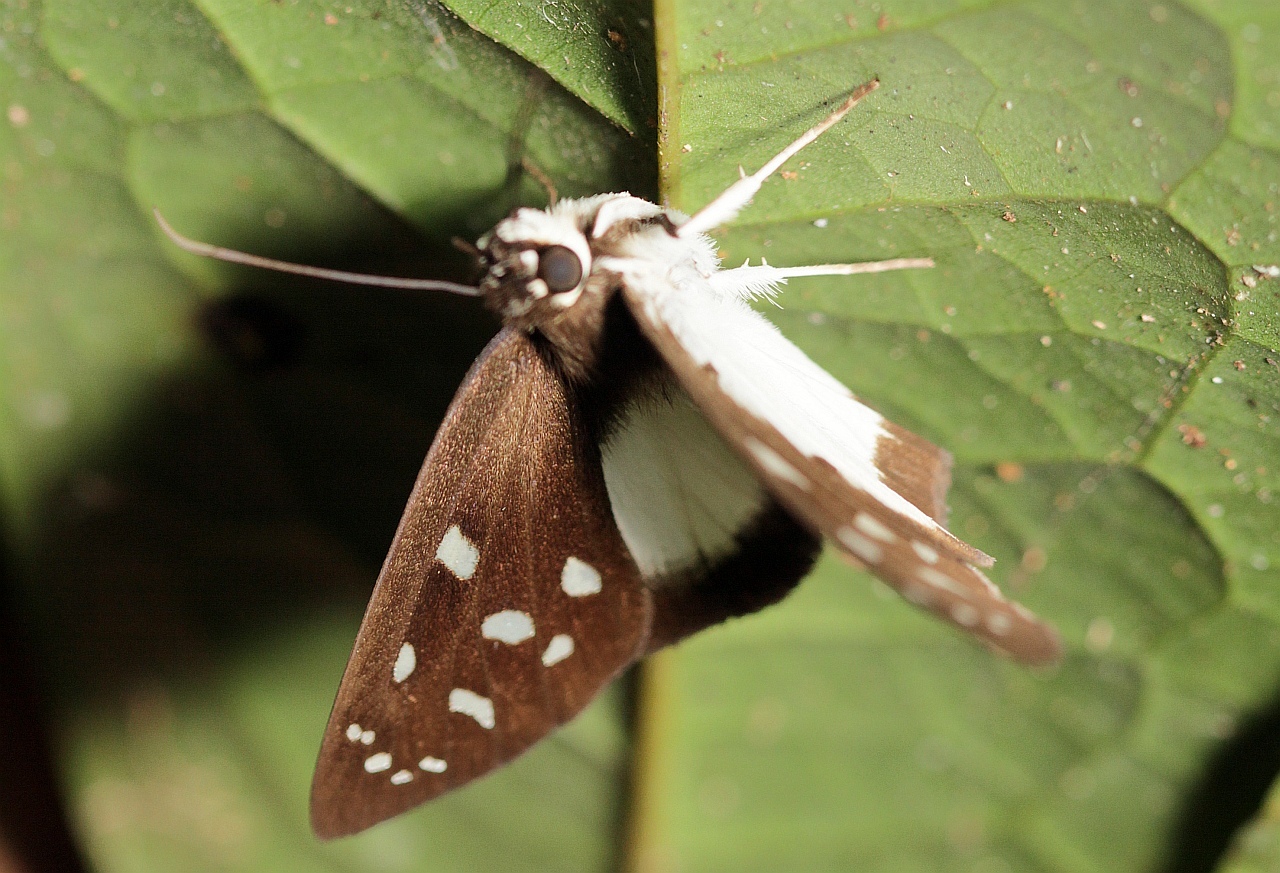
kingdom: Animalia
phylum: Arthropoda
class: Insecta
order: Lepidoptera
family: Hesperiidae
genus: Hyalothyrus
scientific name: Hyalothyrus neleus
